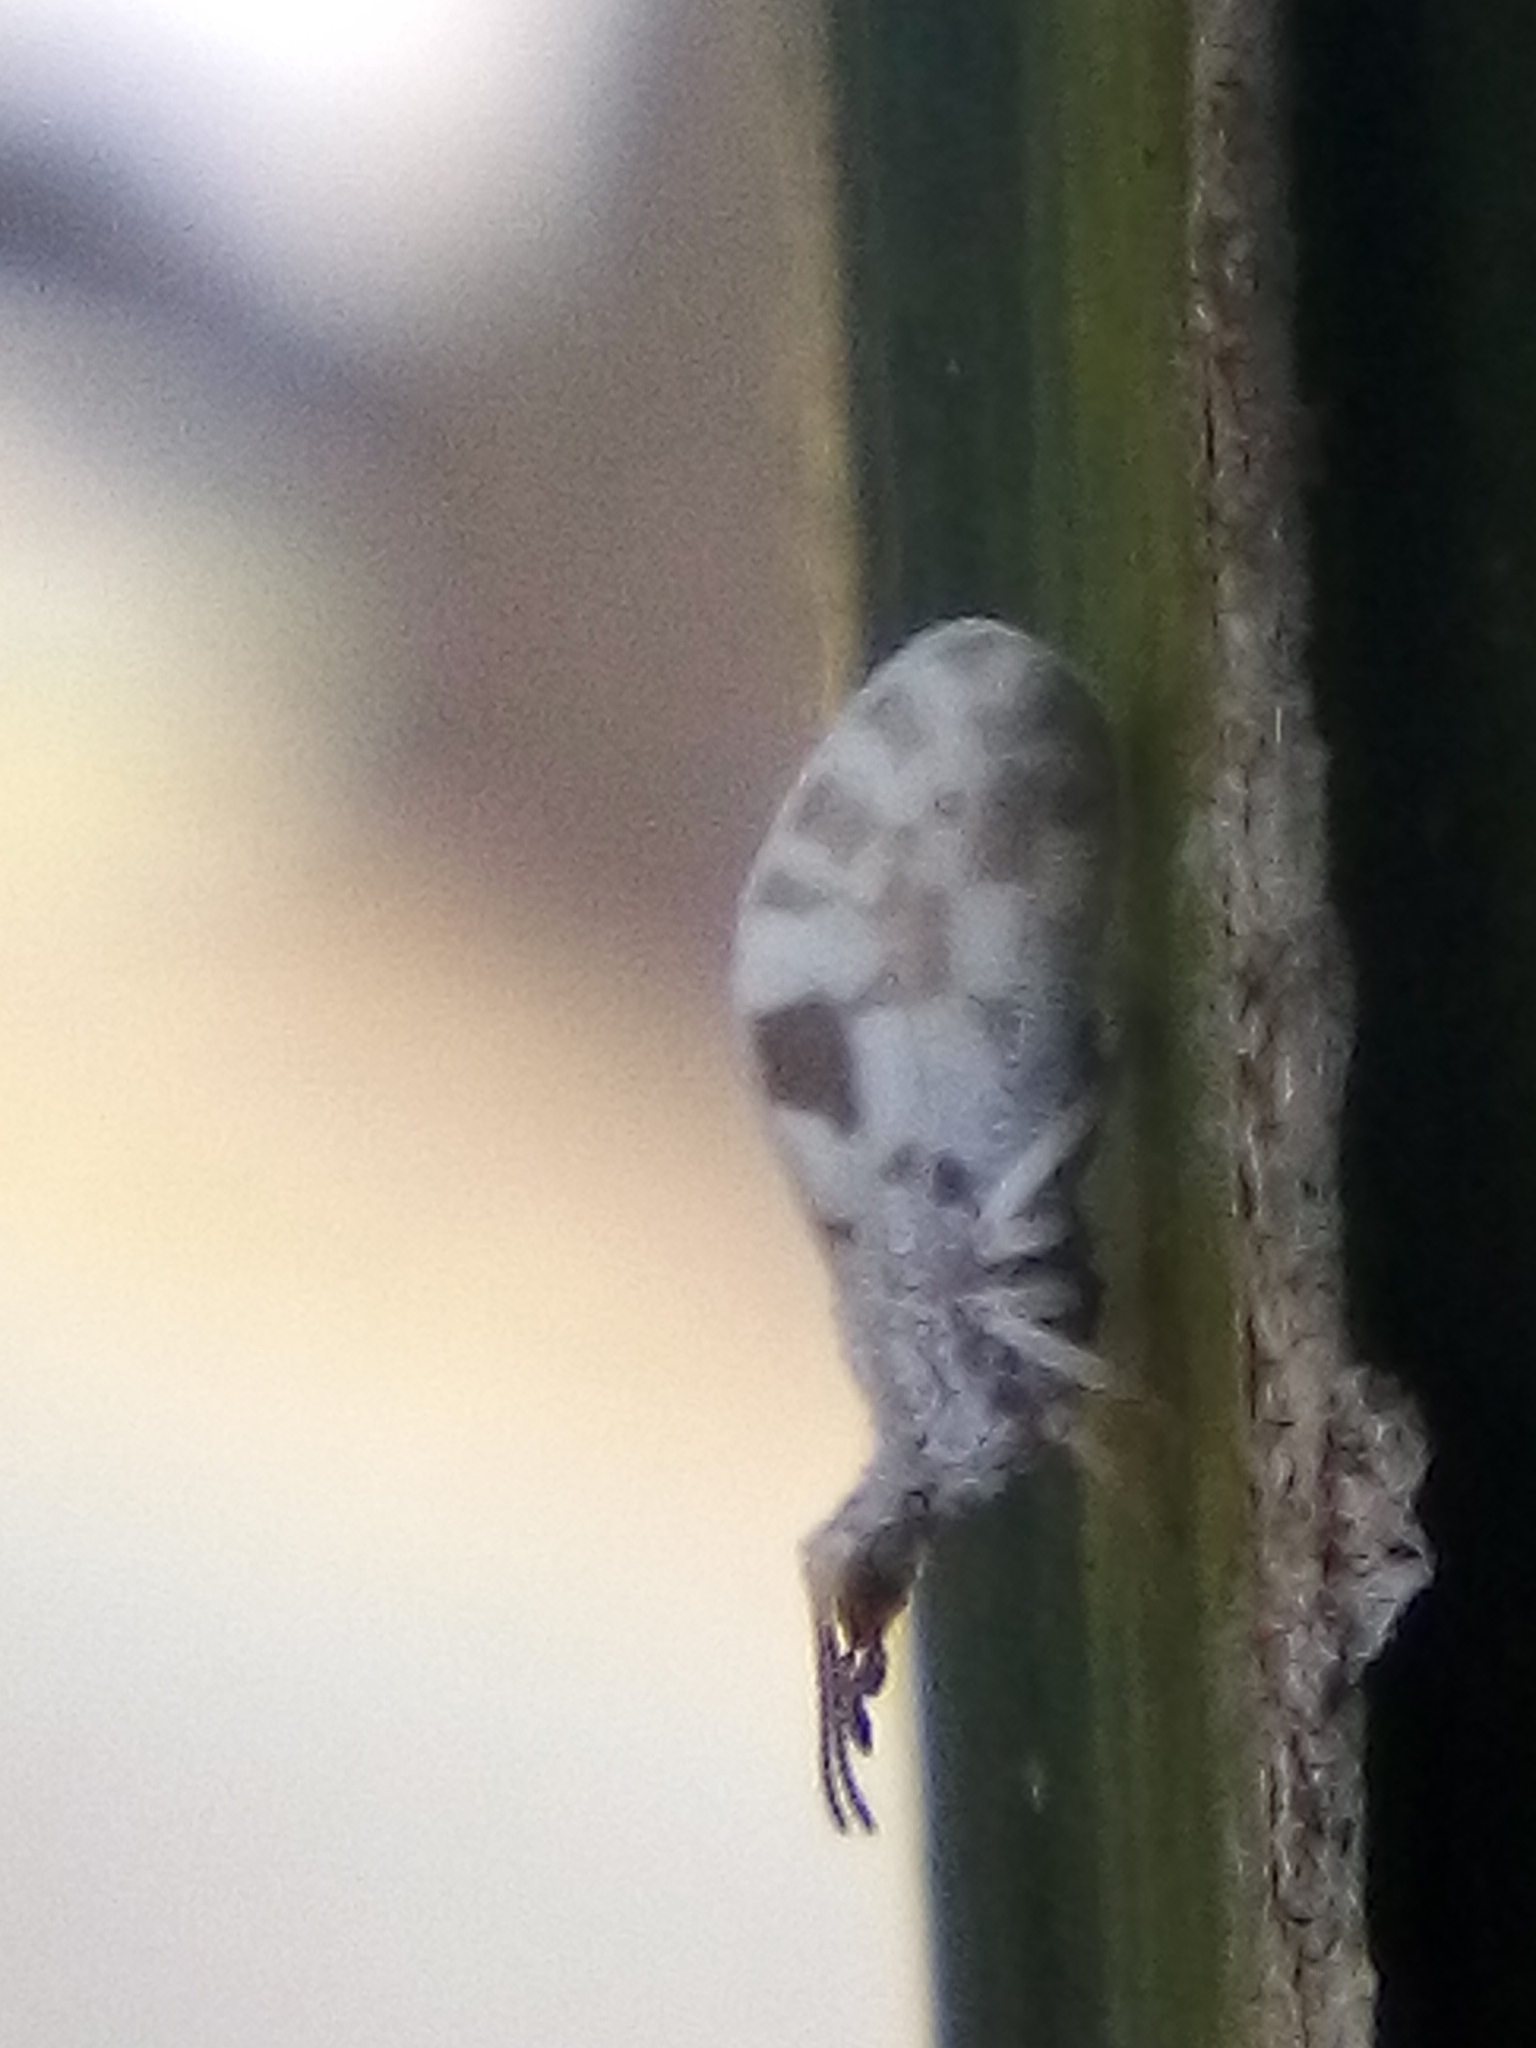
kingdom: Animalia
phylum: Arthropoda
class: Insecta
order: Neuroptera
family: Coniopterygidae
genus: Heteroconis
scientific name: Heteroconis ornata
